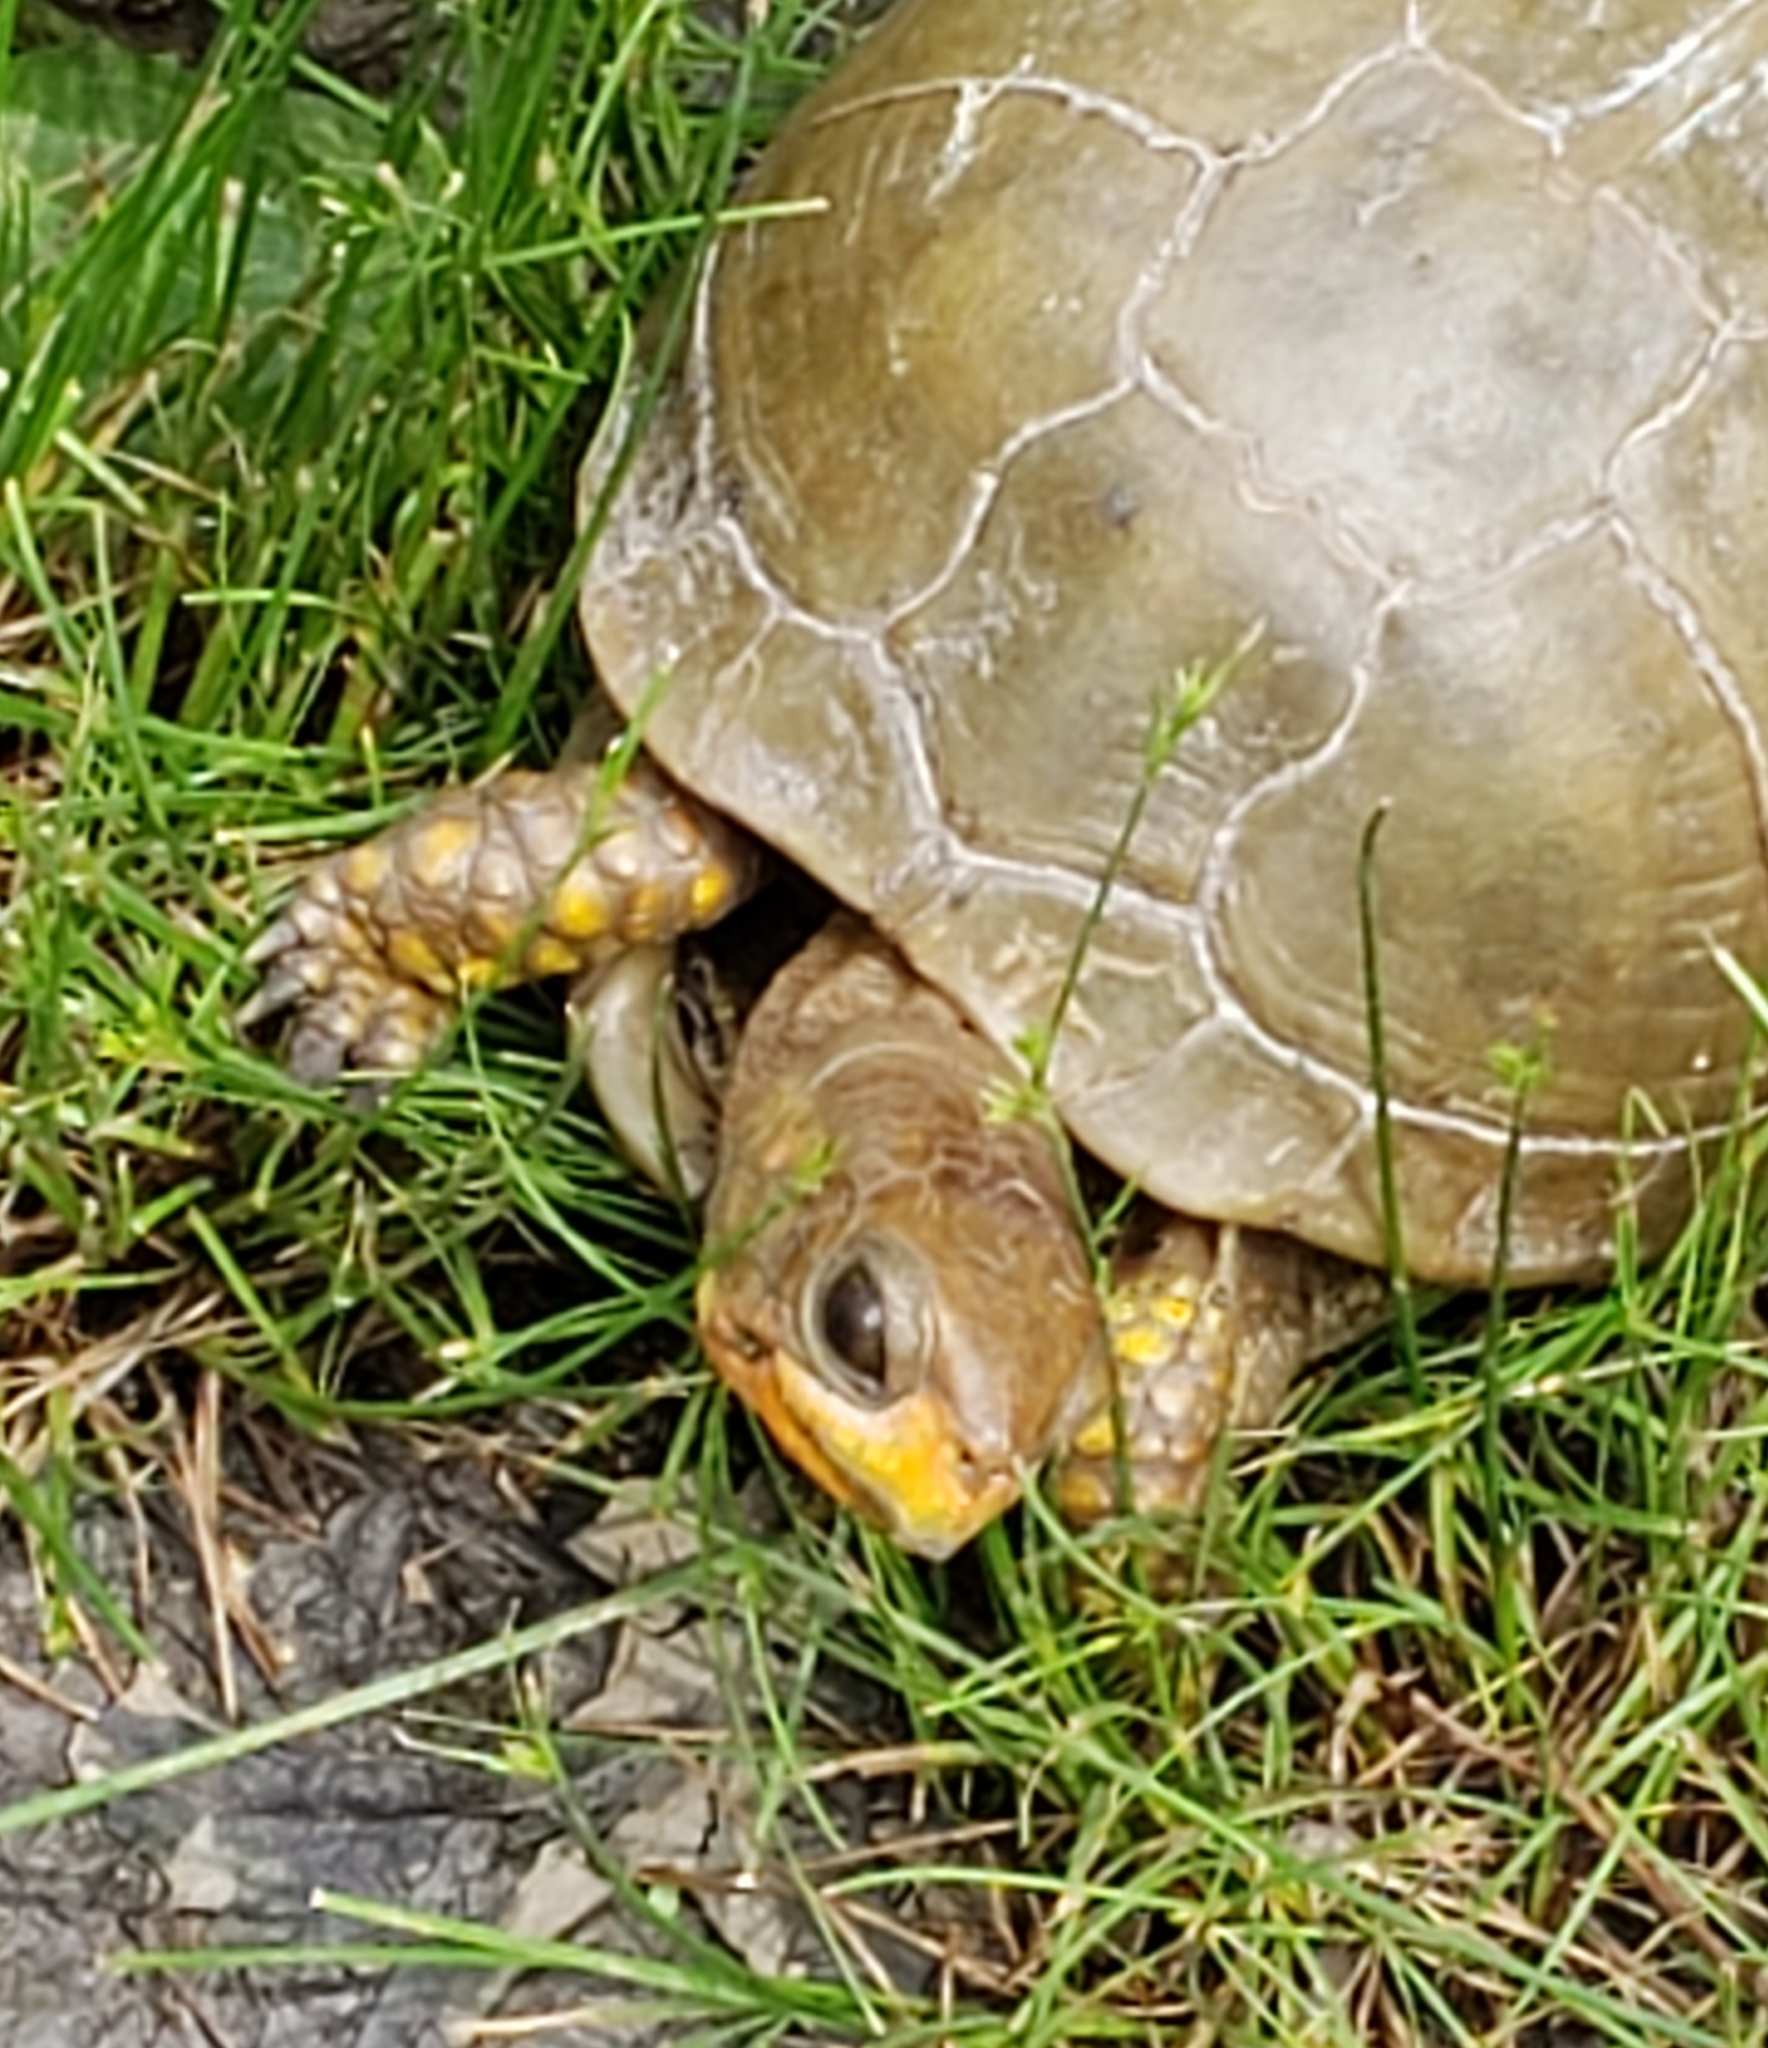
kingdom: Animalia
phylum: Chordata
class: Testudines
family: Emydidae
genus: Terrapene
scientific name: Terrapene carolina
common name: Common box turtle
